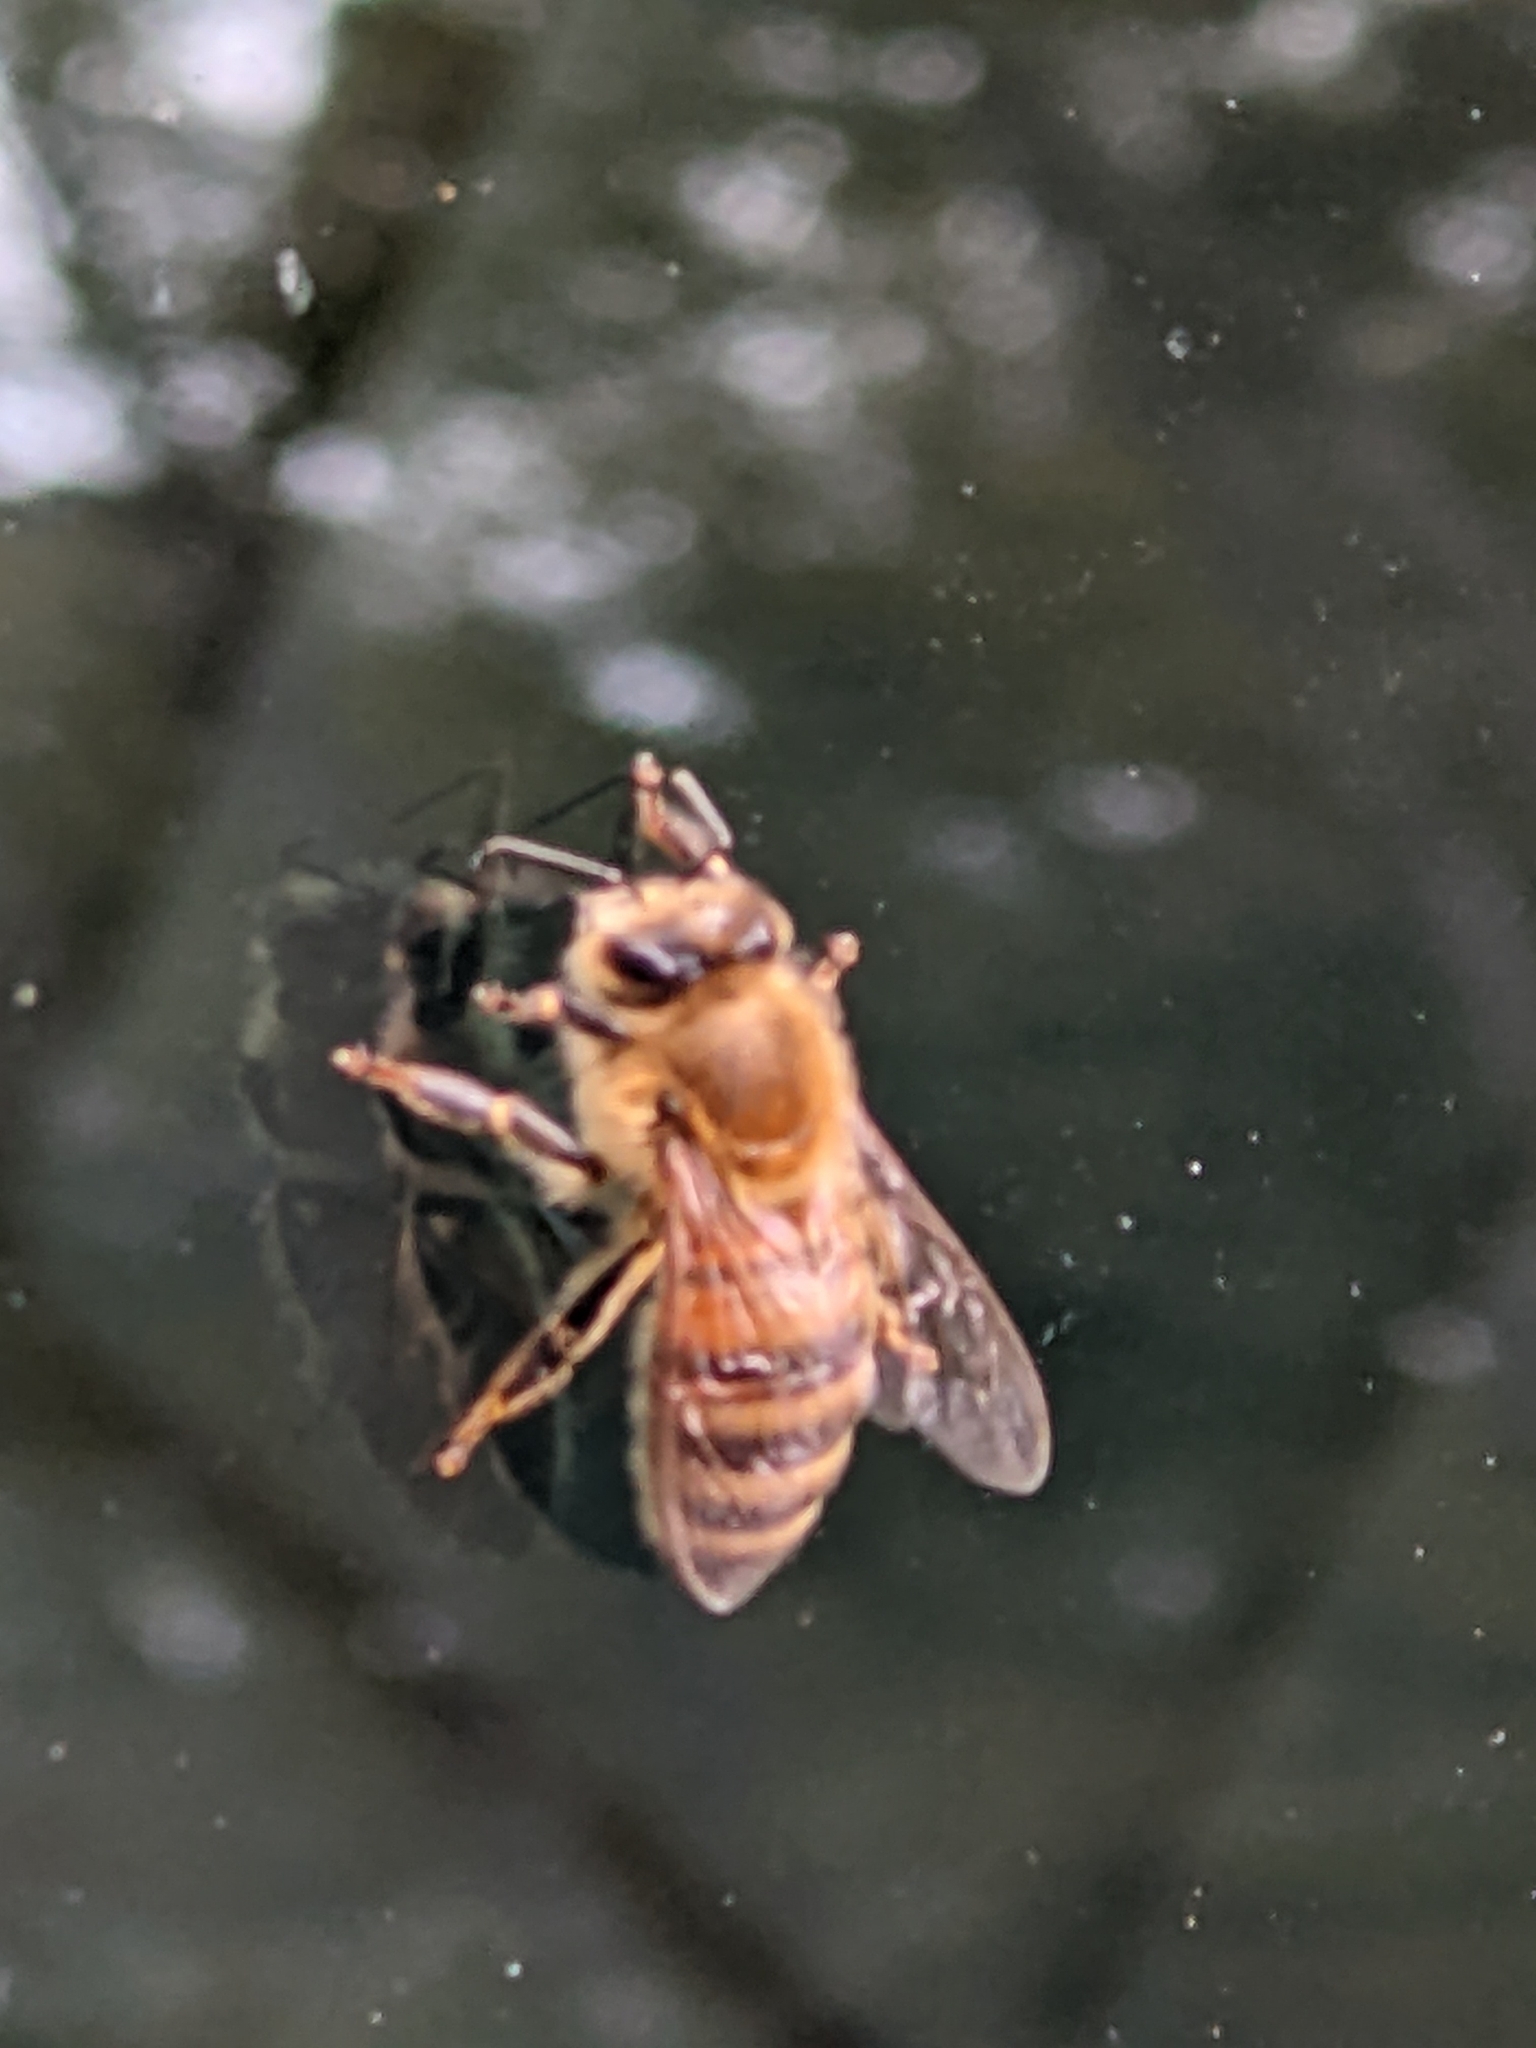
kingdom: Animalia
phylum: Arthropoda
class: Insecta
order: Hymenoptera
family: Apidae
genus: Apis
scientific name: Apis mellifera
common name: Honey bee
